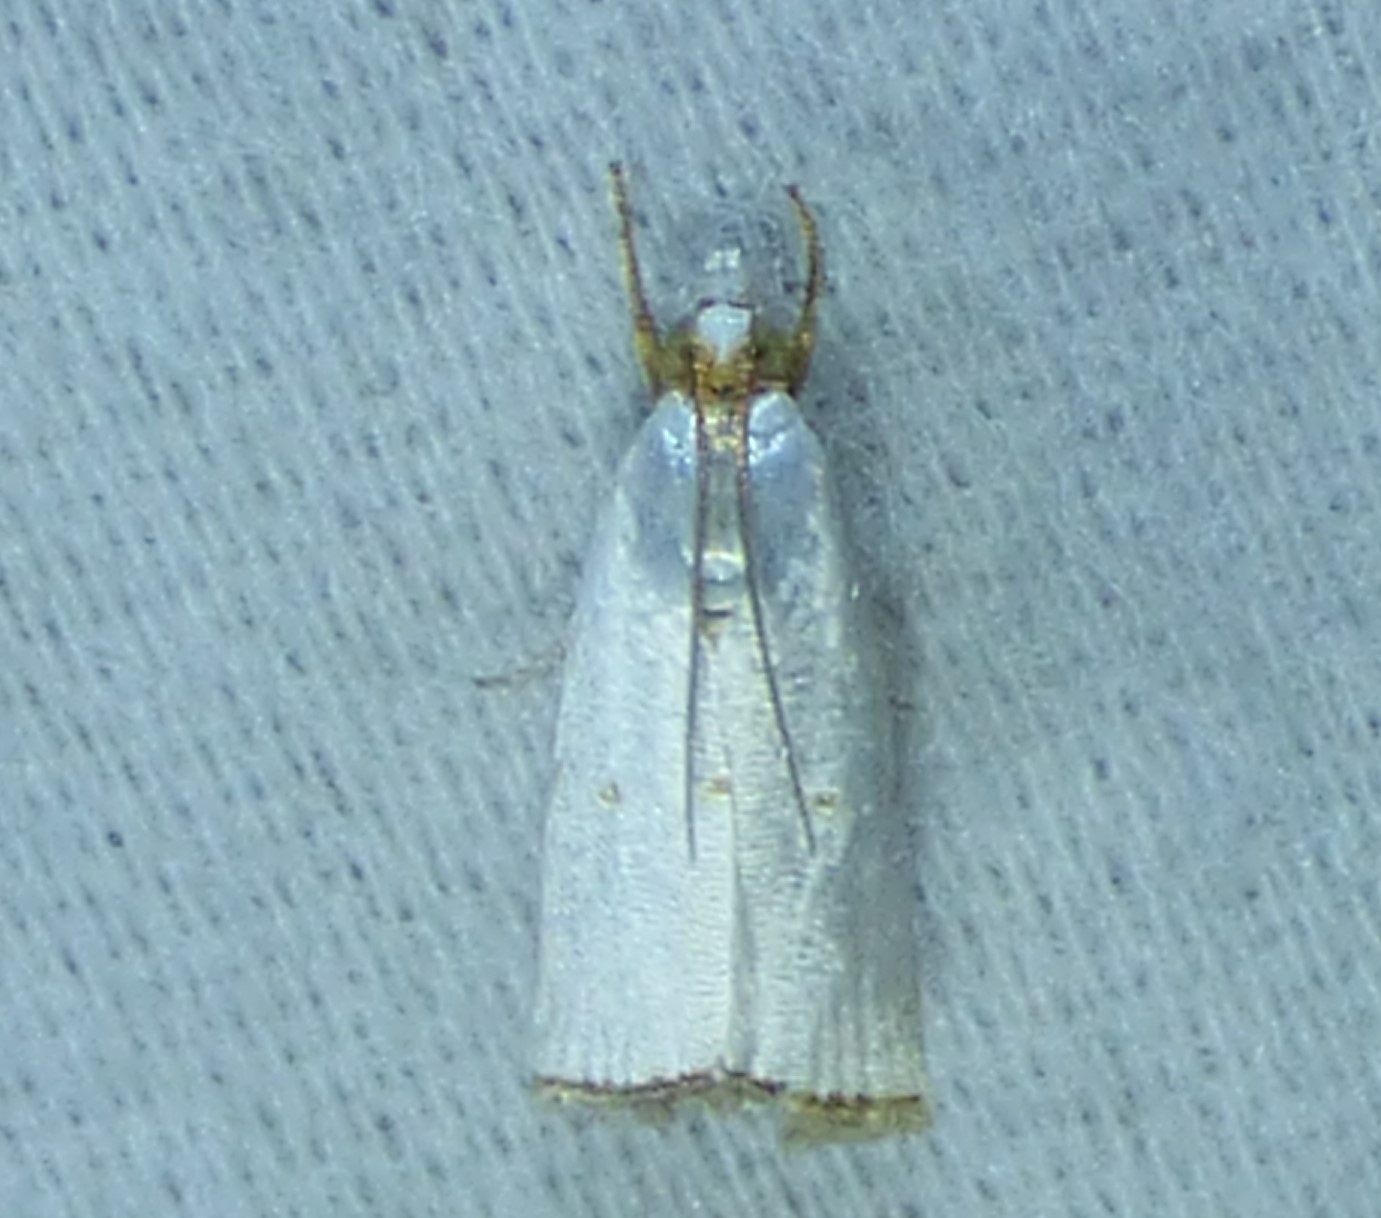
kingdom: Animalia
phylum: Arthropoda
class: Insecta
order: Lepidoptera
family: Crambidae
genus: Argyria
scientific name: Argyria pusillalis
